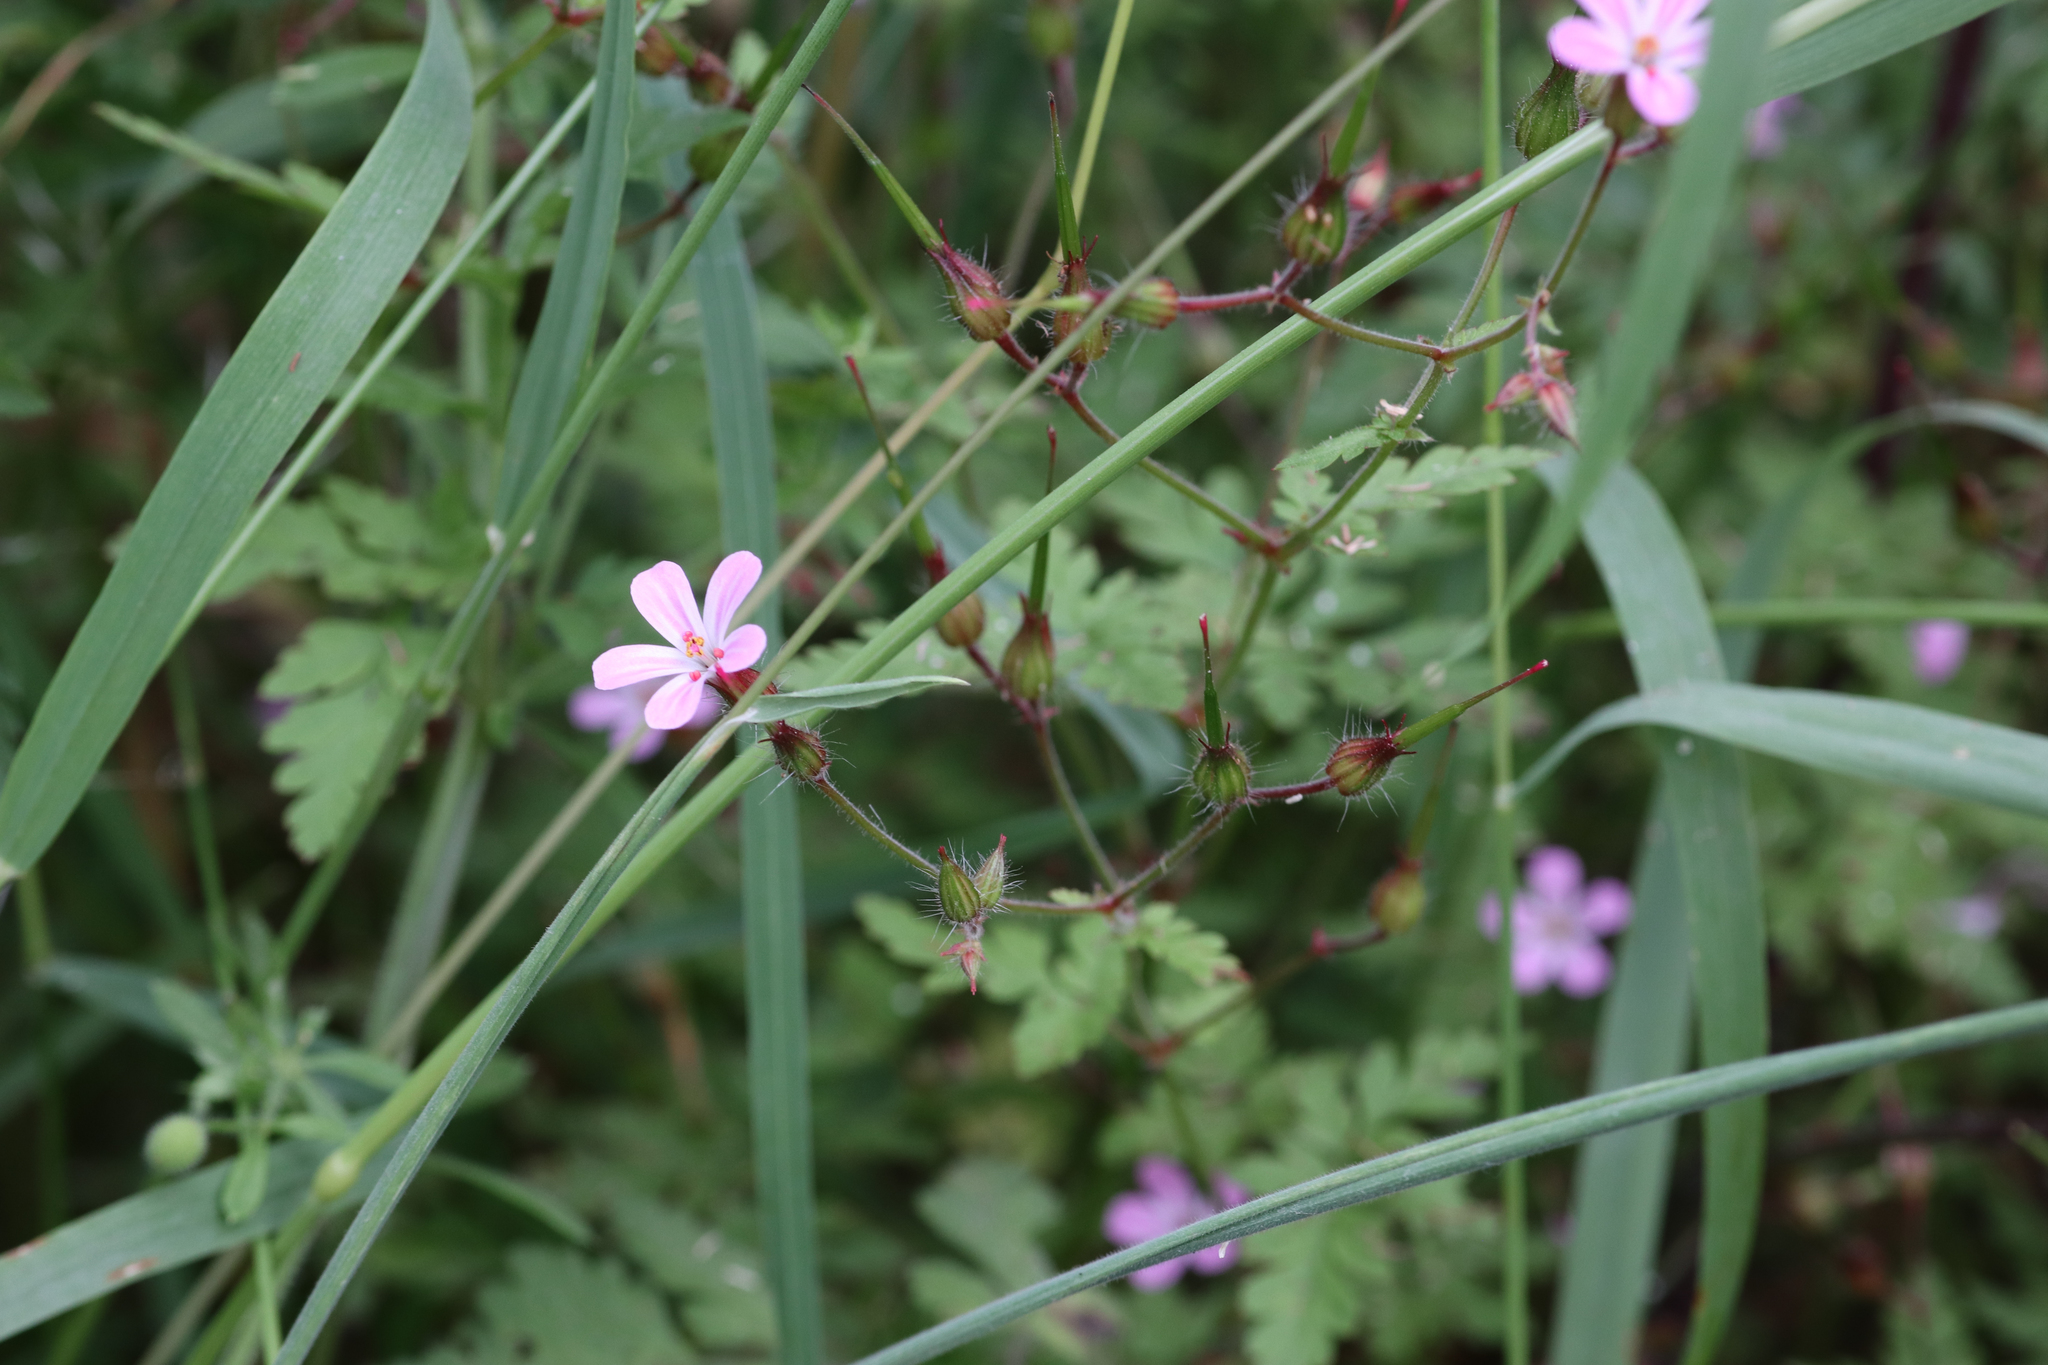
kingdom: Plantae
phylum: Tracheophyta
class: Magnoliopsida
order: Geraniales
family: Geraniaceae
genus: Geranium
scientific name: Geranium robertianum
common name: Herb-robert
